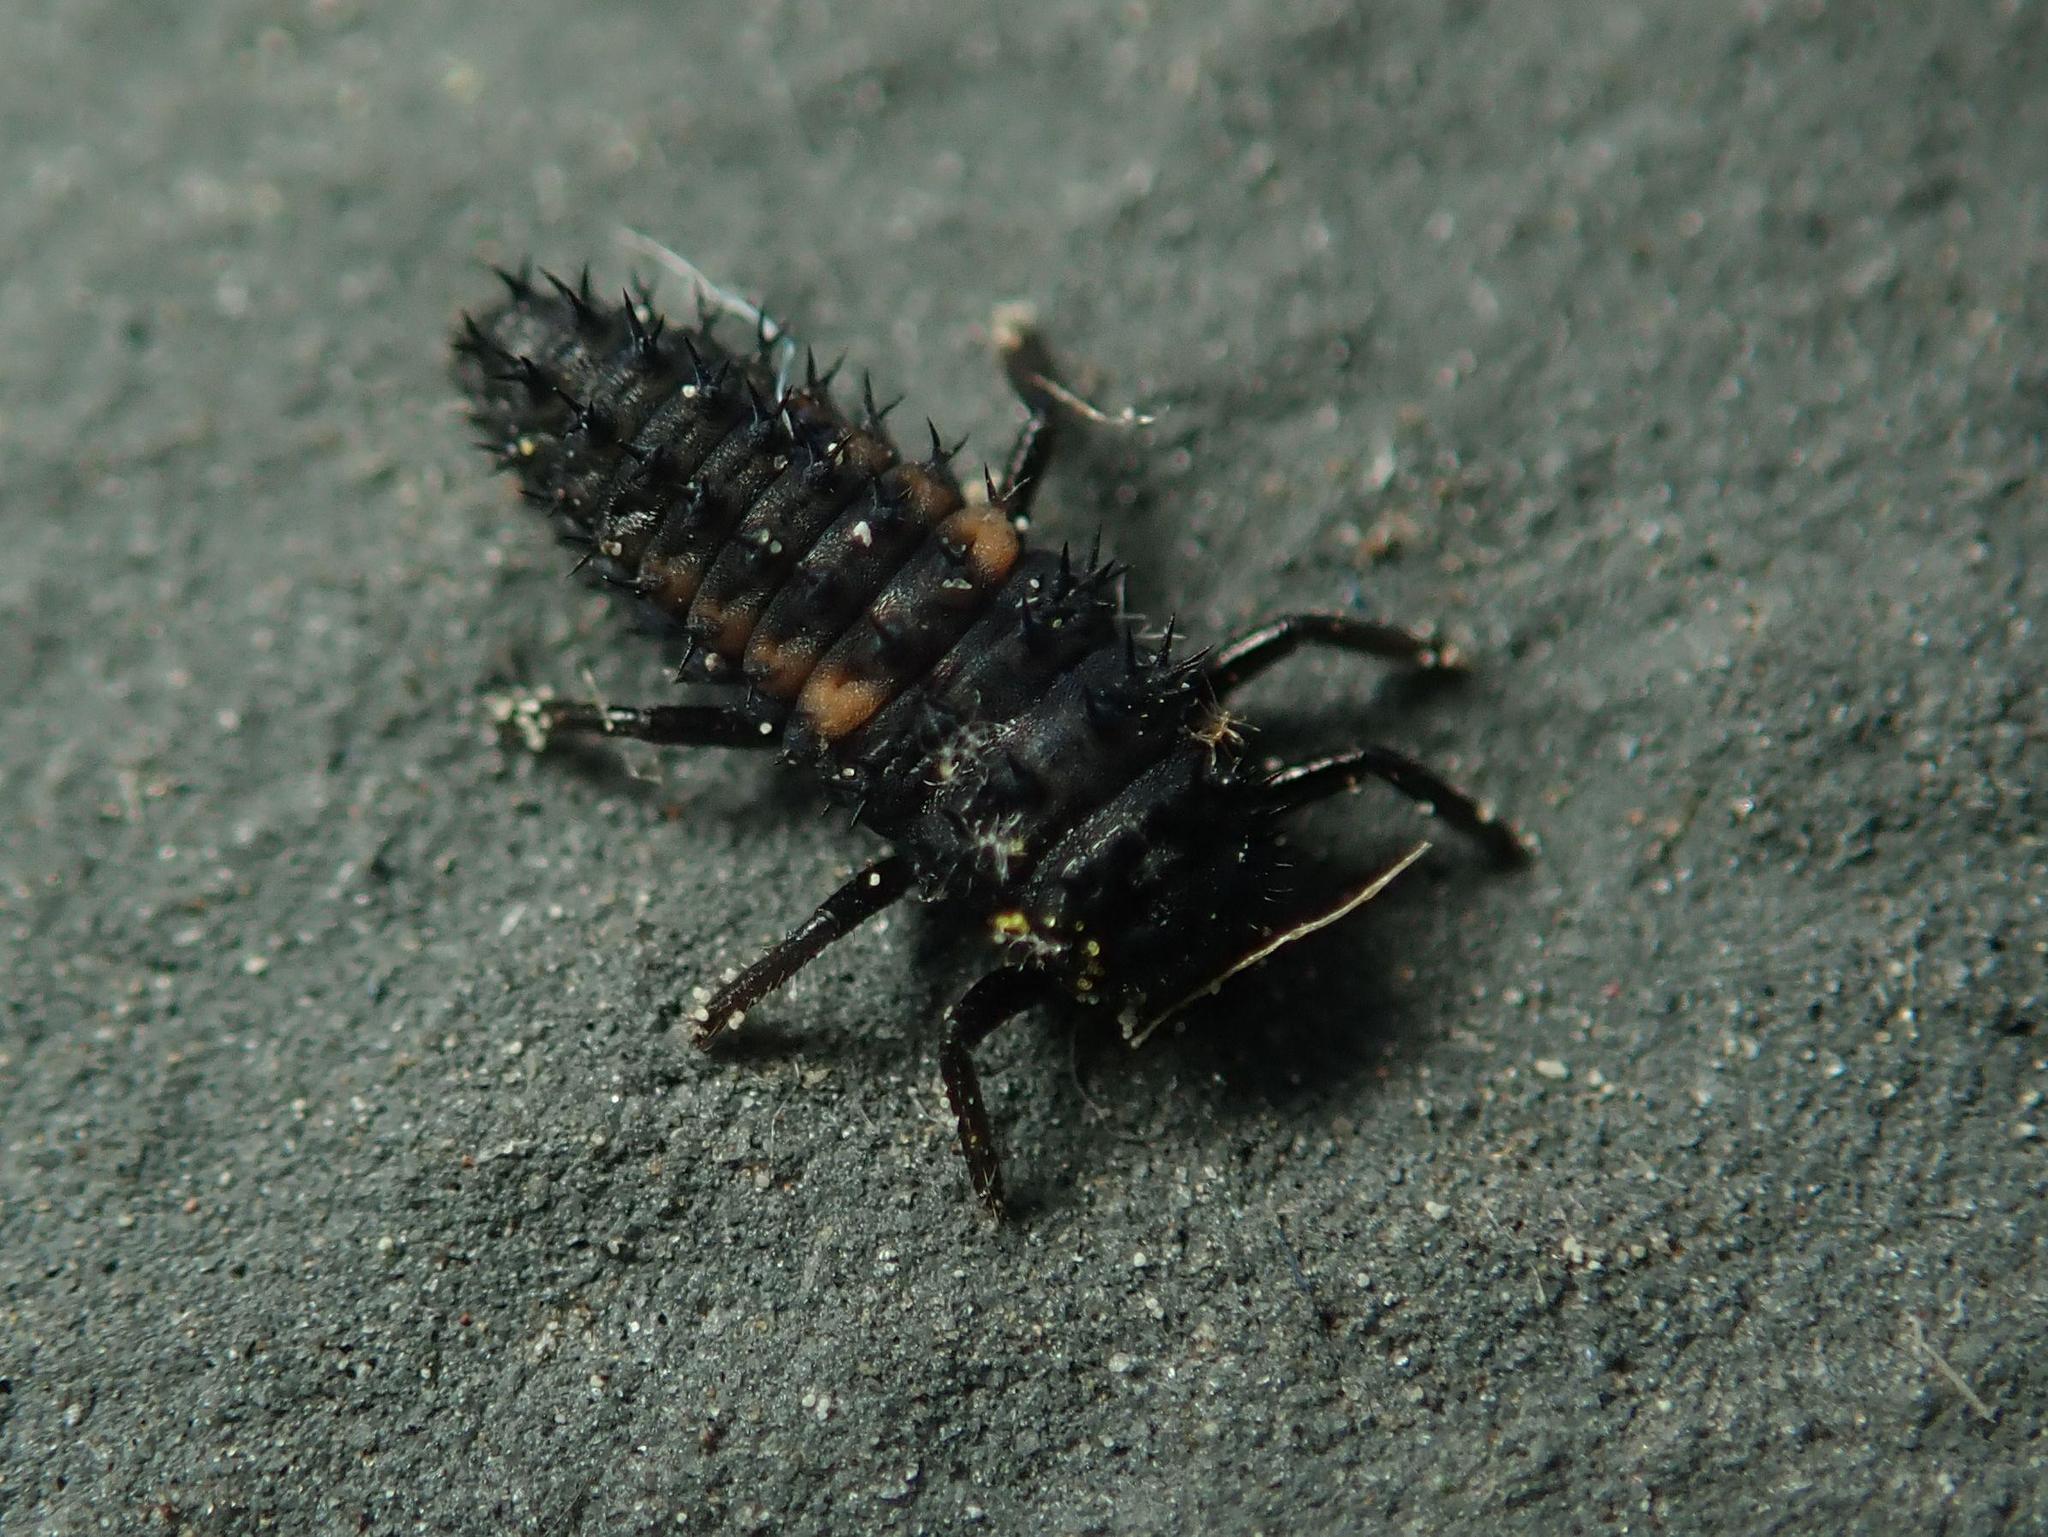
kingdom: Animalia
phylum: Arthropoda
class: Insecta
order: Coleoptera
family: Coccinellidae
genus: Harmonia
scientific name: Harmonia axyridis
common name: Harlequin ladybird
